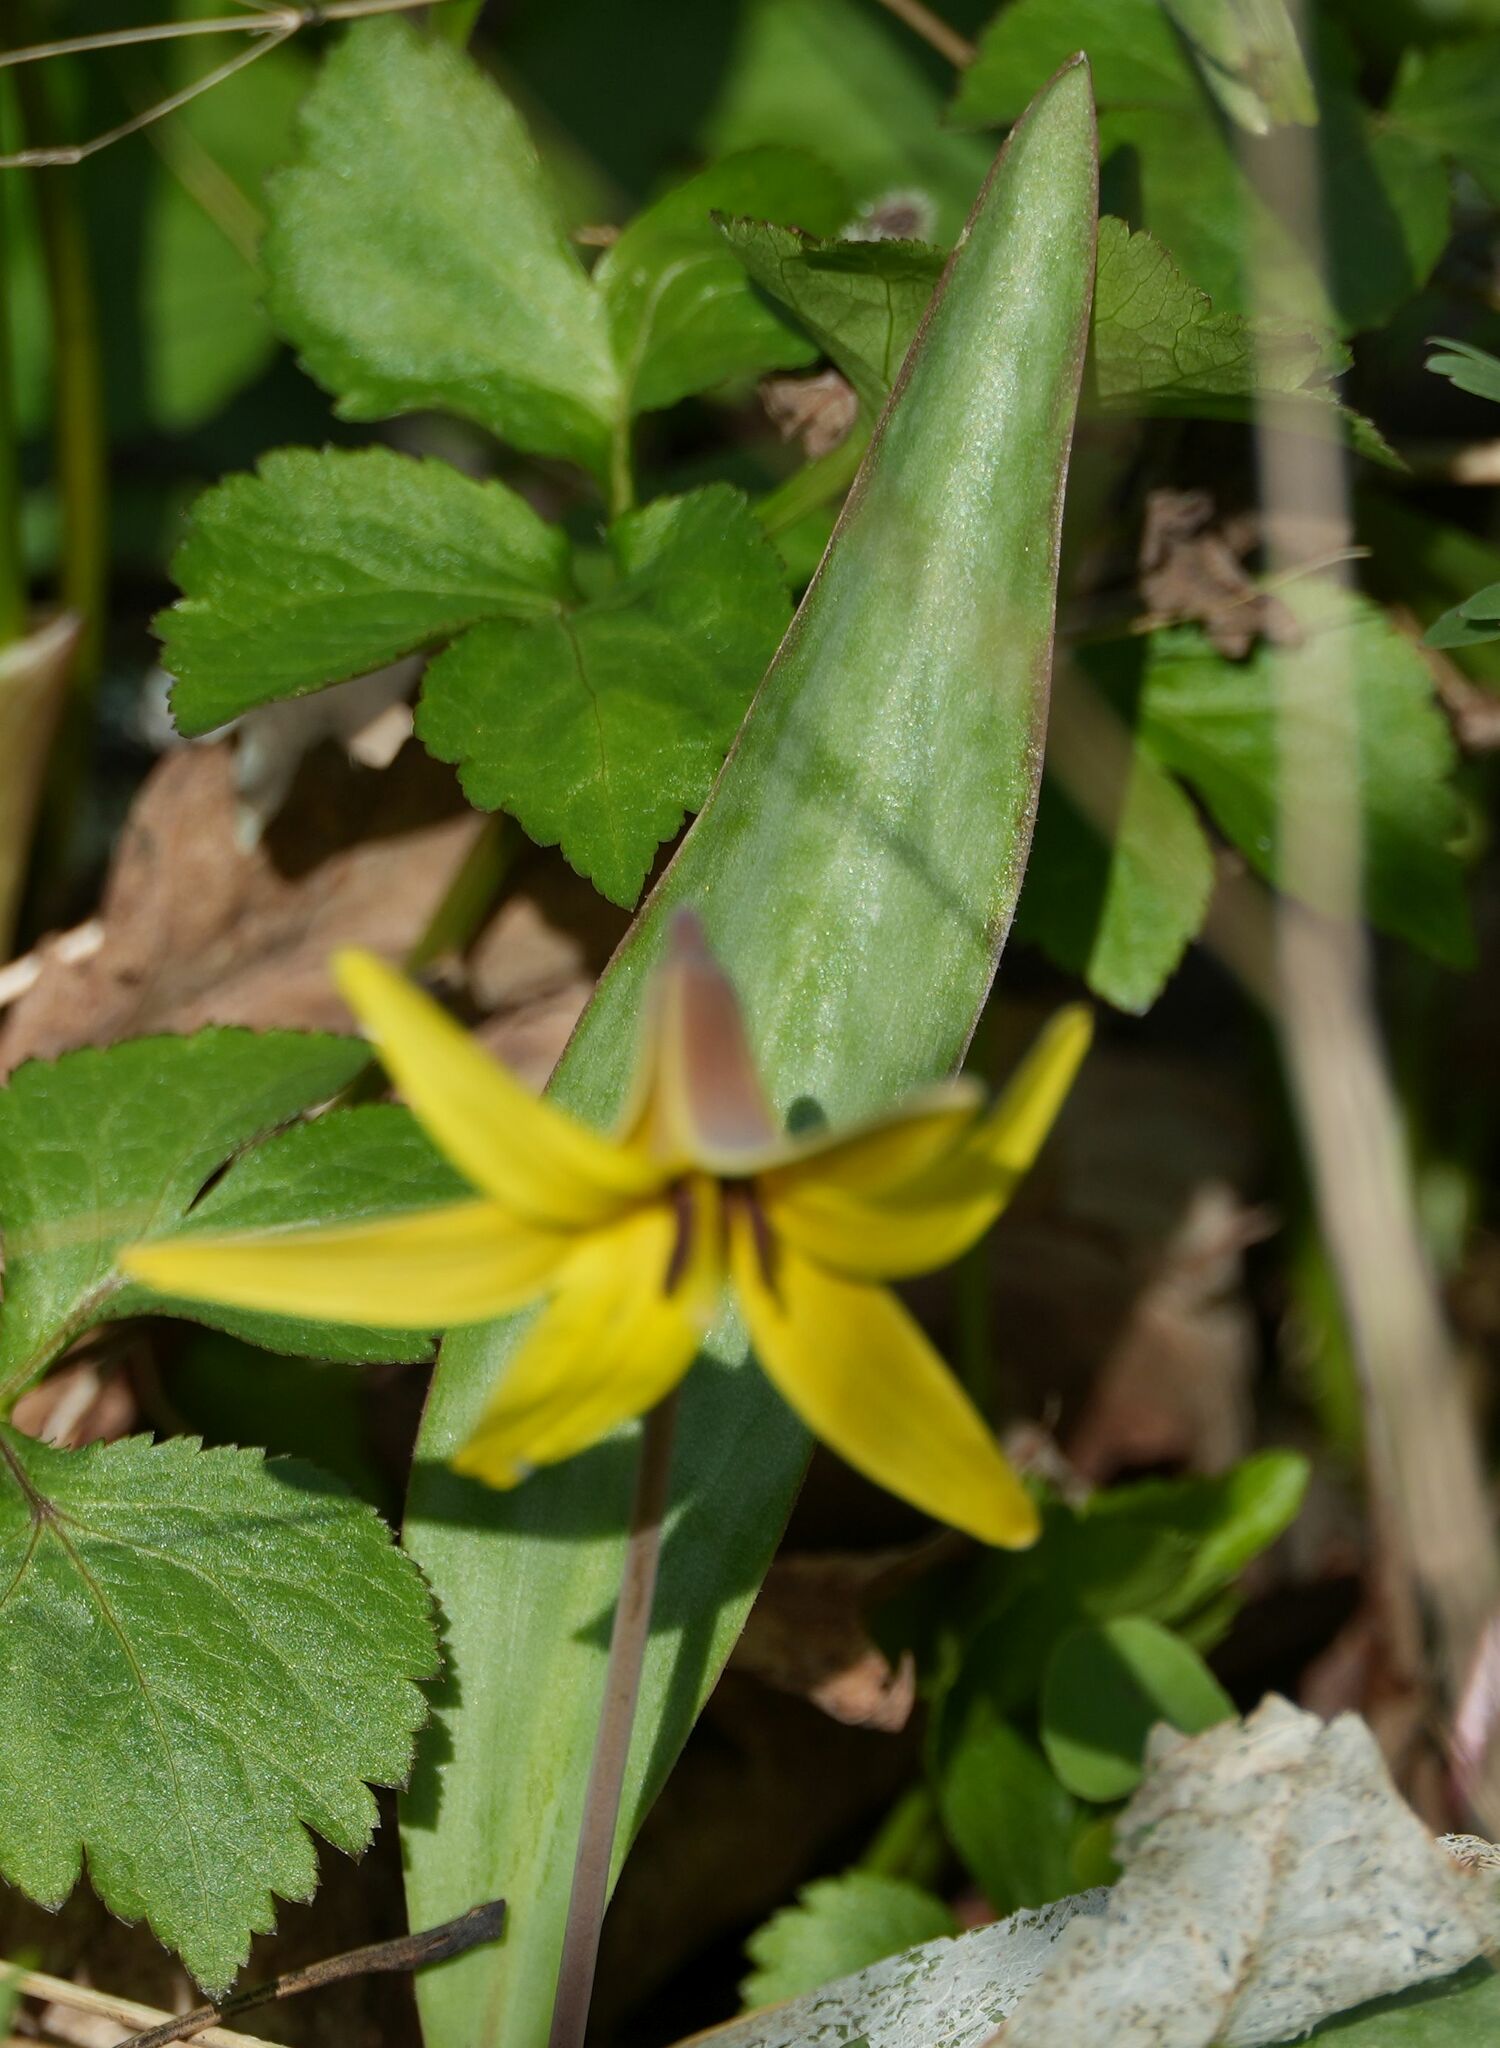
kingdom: Plantae
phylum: Tracheophyta
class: Liliopsida
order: Liliales
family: Liliaceae
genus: Erythronium
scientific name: Erythronium americanum
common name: Yellow adder's-tongue
